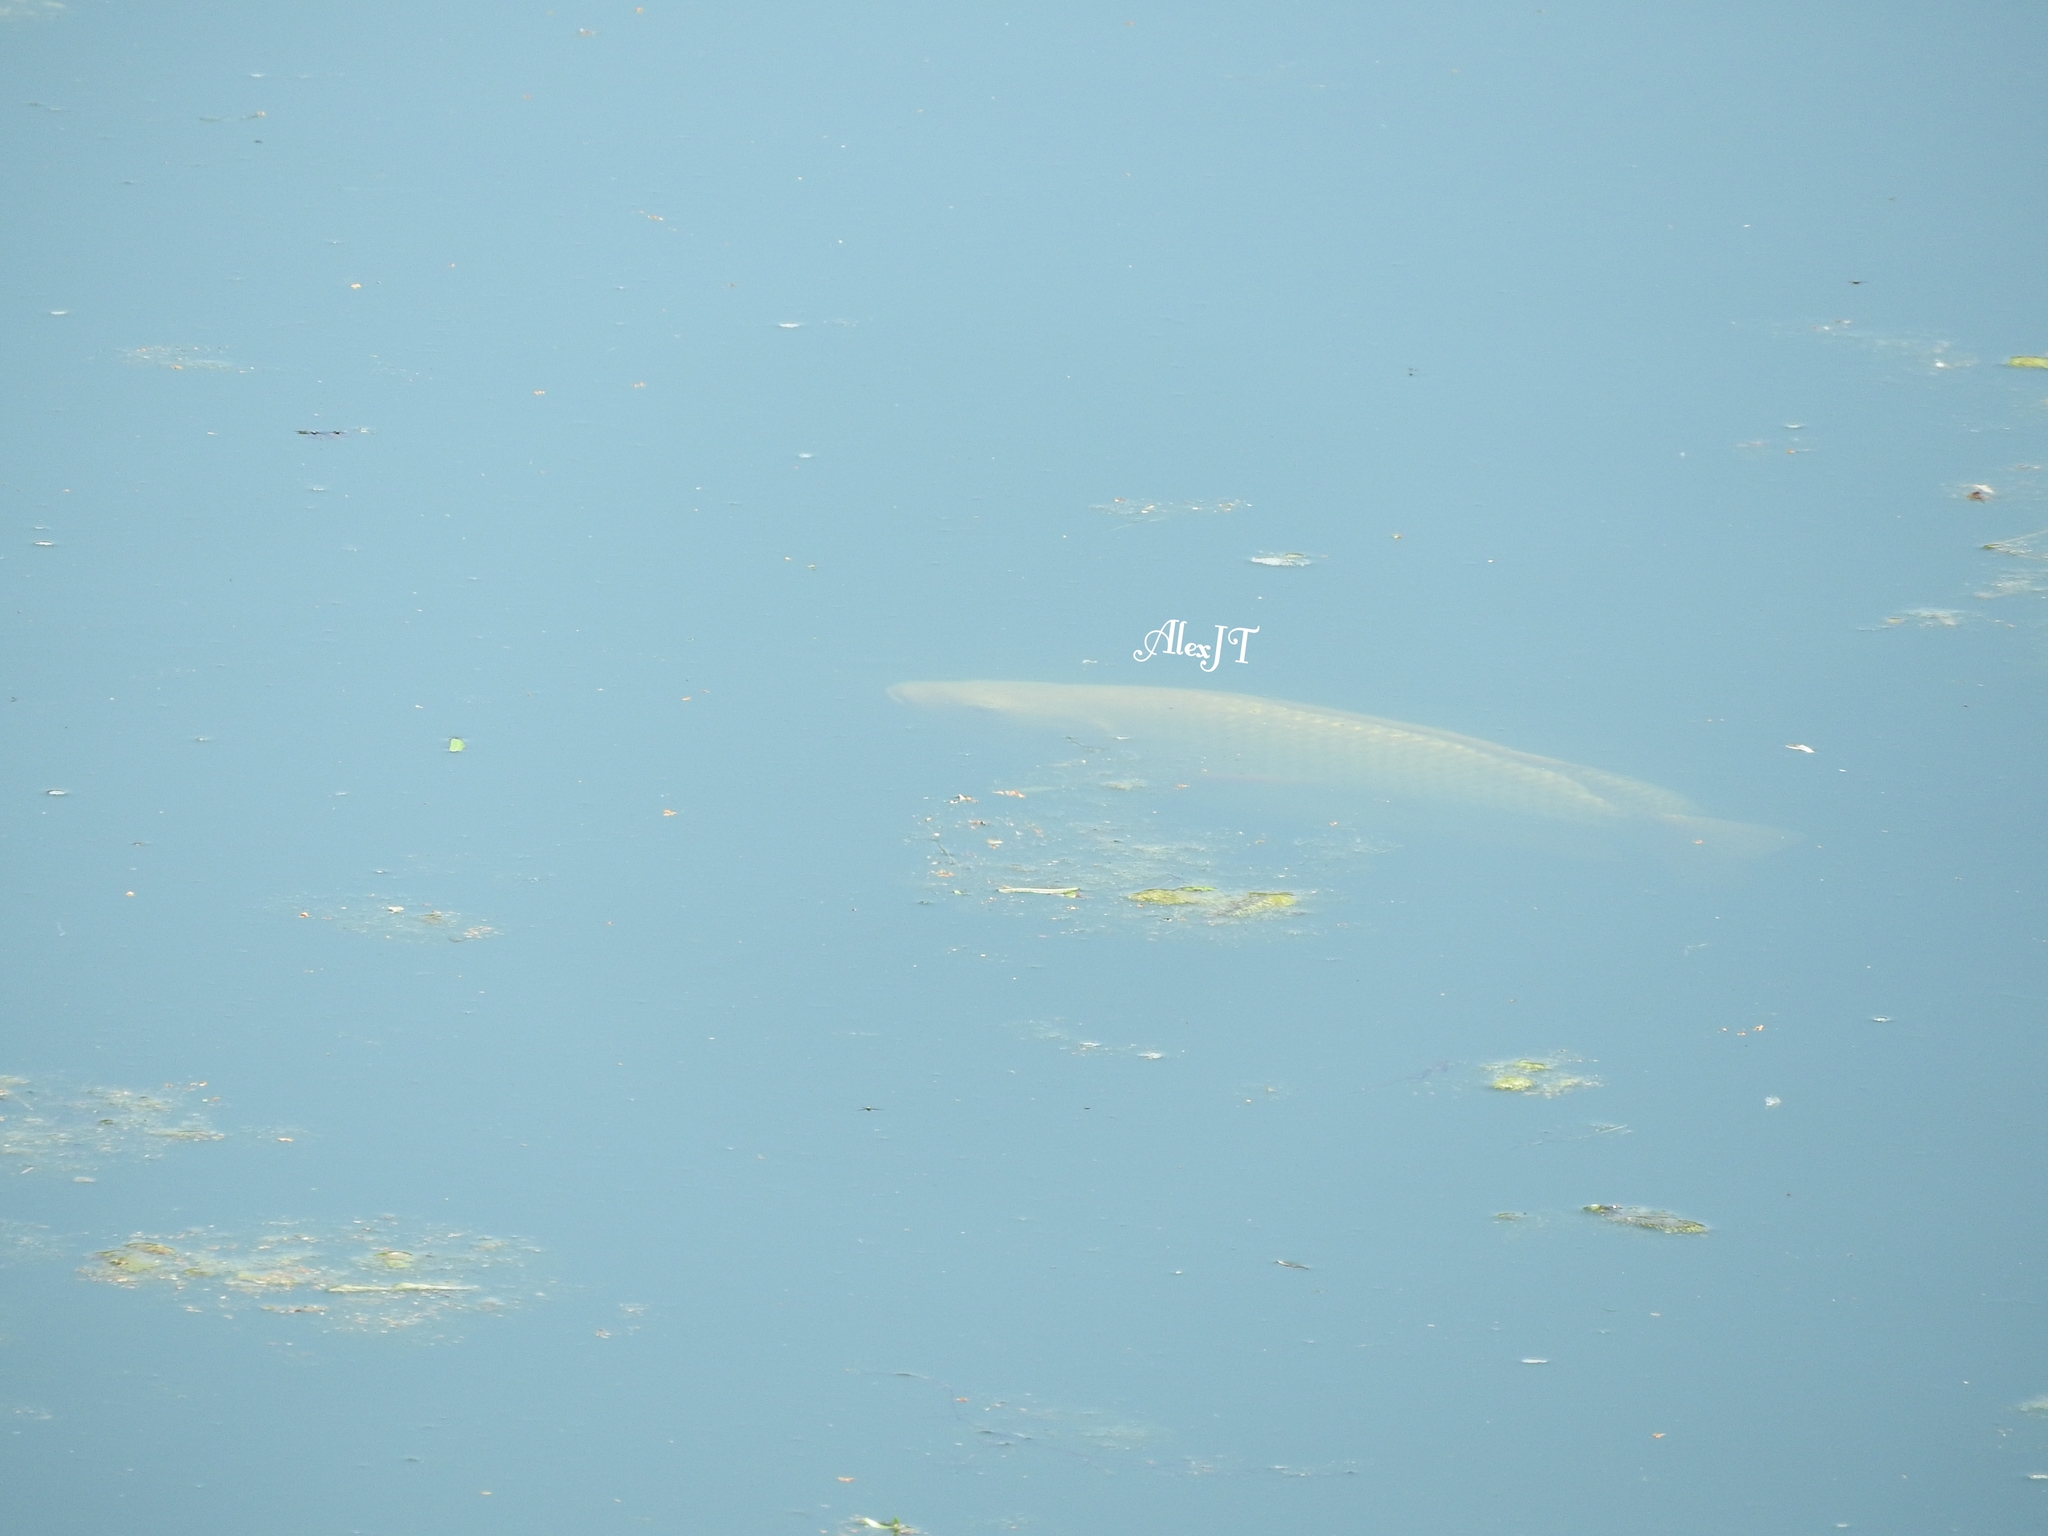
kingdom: Animalia
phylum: Chordata
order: Perciformes
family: Cichlidae
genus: Oreochromis
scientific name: Oreochromis niloticus
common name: Nile tilapia
